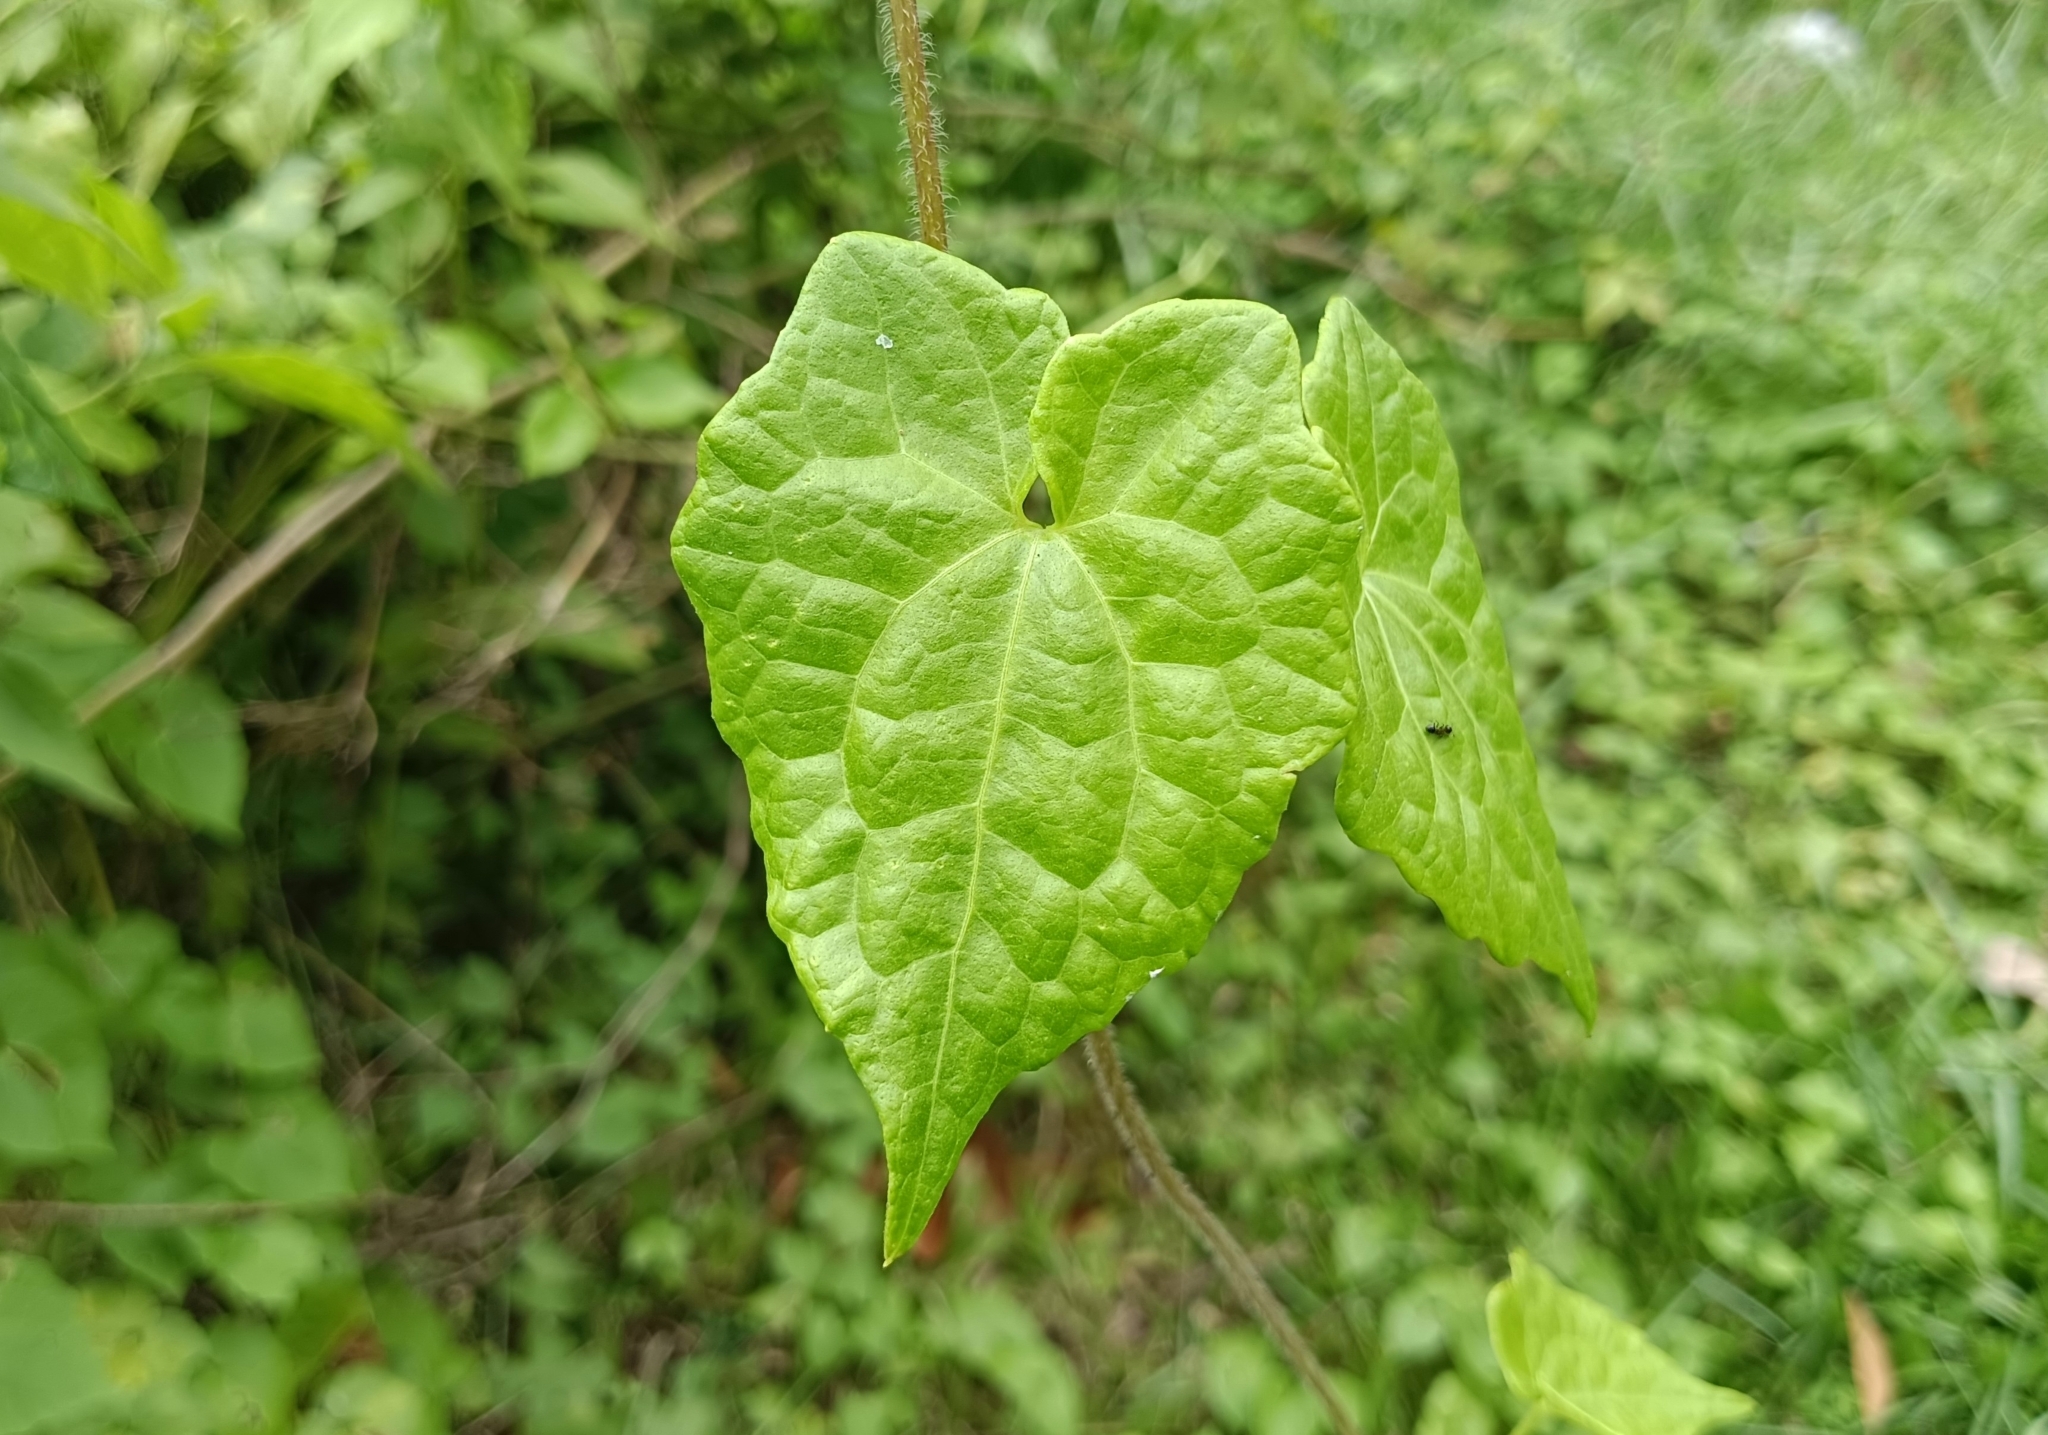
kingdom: Plantae
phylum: Tracheophyta
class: Magnoliopsida
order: Asterales
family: Asteraceae
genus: Mikania
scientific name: Mikania micrantha
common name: Mile-a-minute
